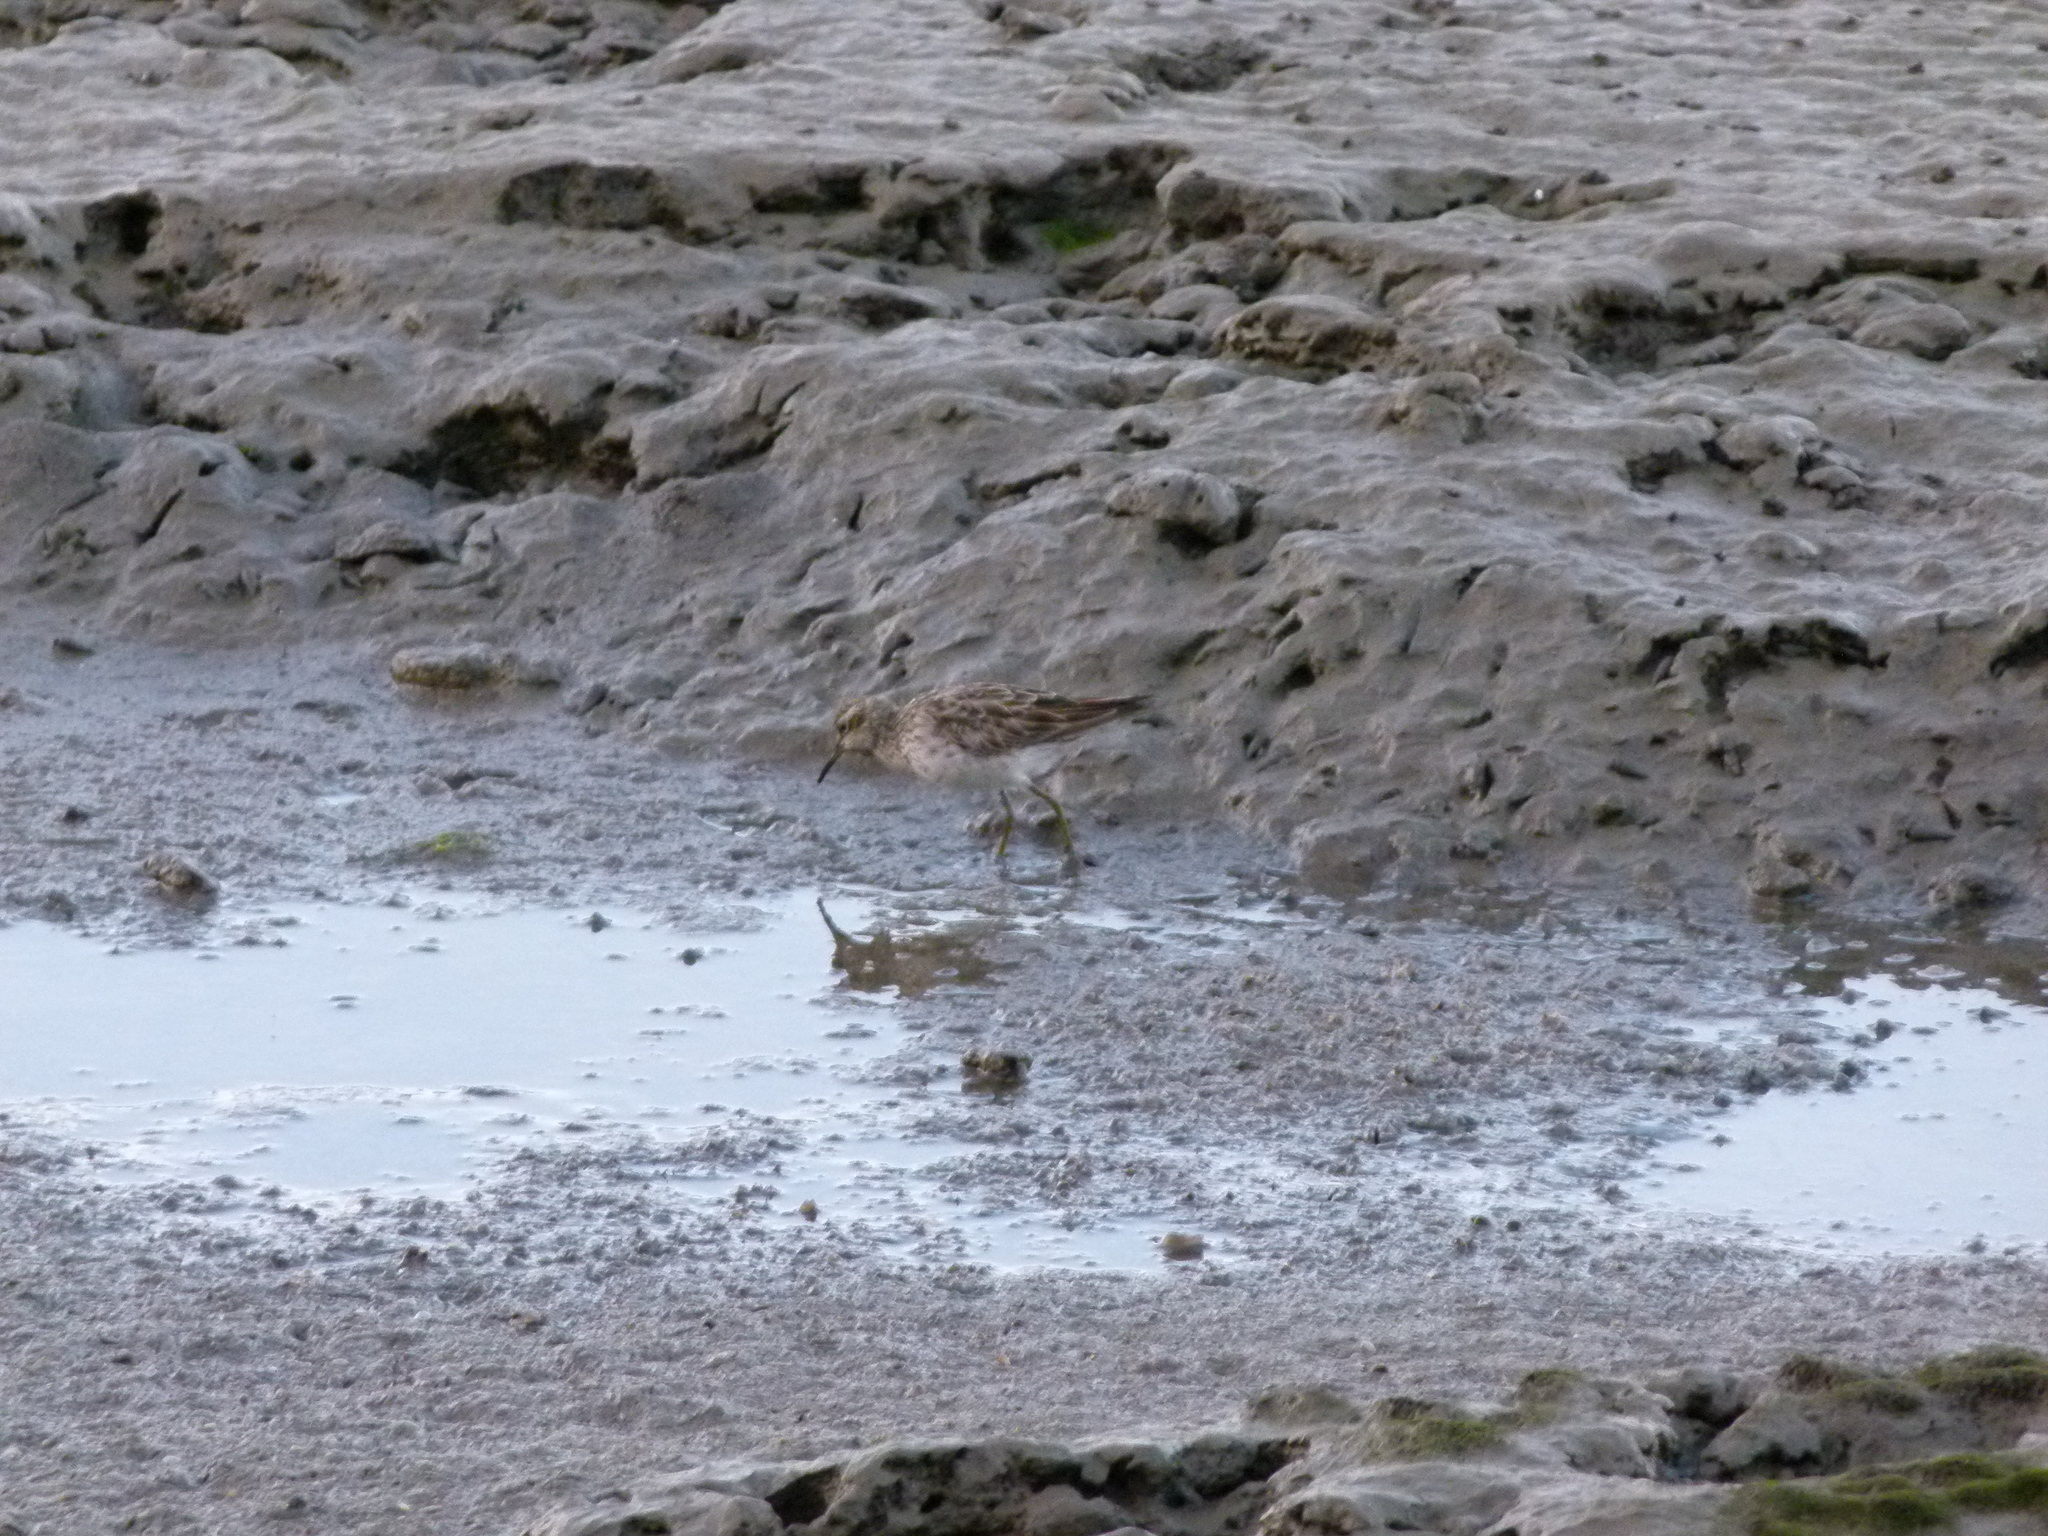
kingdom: Animalia
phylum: Chordata
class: Aves
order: Charadriiformes
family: Scolopacidae
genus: Calidris
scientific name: Calidris acuminata
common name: Sharp-tailed sandpiper
